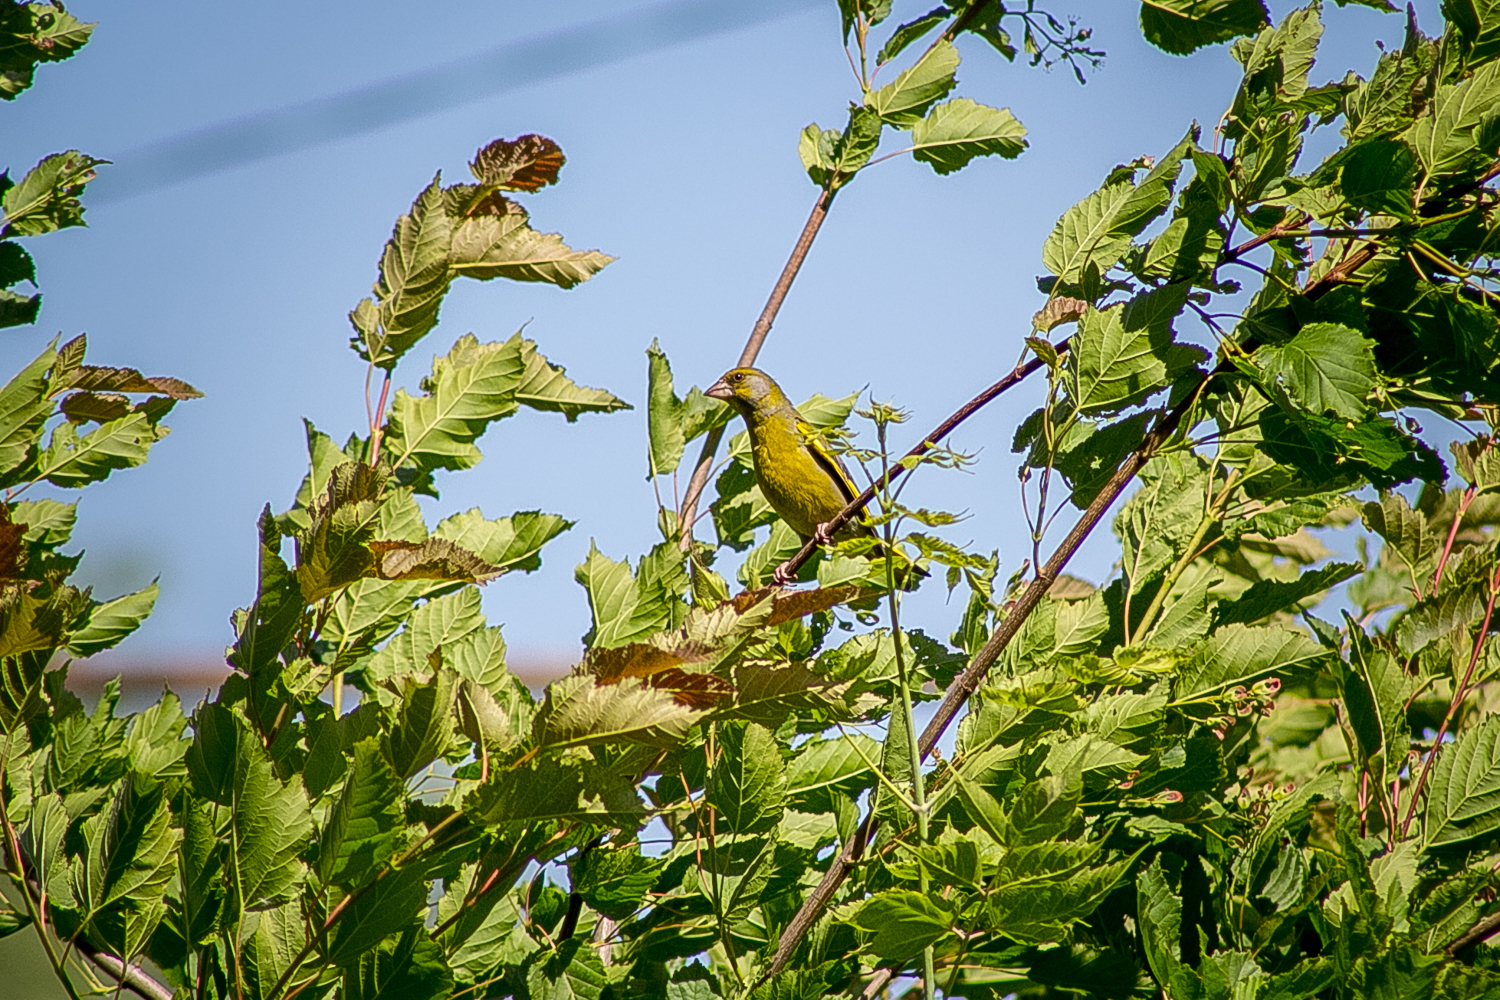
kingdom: Plantae
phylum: Tracheophyta
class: Liliopsida
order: Poales
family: Poaceae
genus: Chloris
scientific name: Chloris chloris
